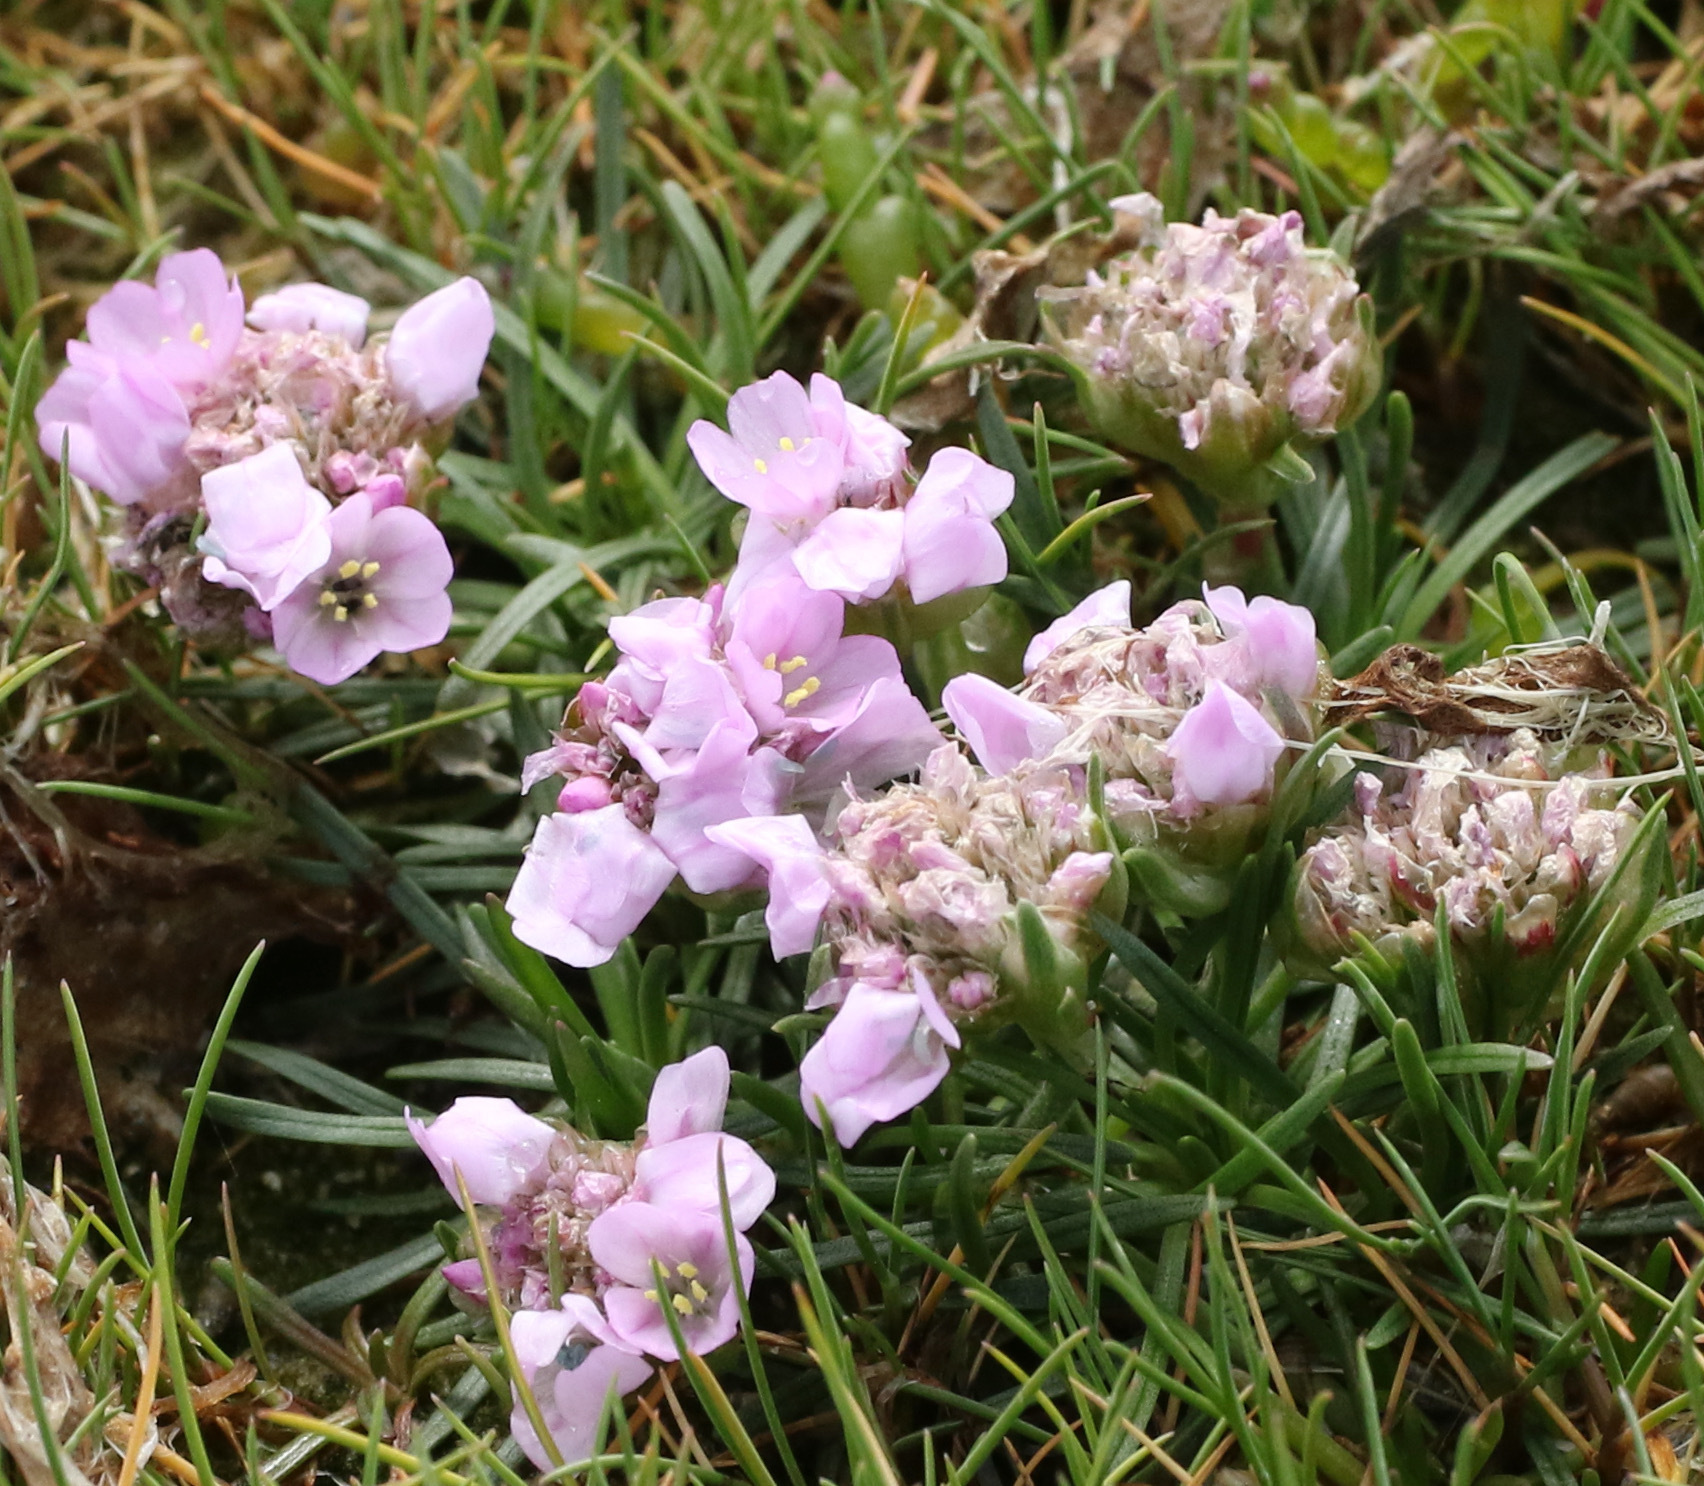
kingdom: Plantae
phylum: Tracheophyta
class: Magnoliopsida
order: Caryophyllales
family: Plumbaginaceae
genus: Armeria
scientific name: Armeria maritima
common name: Thrift
